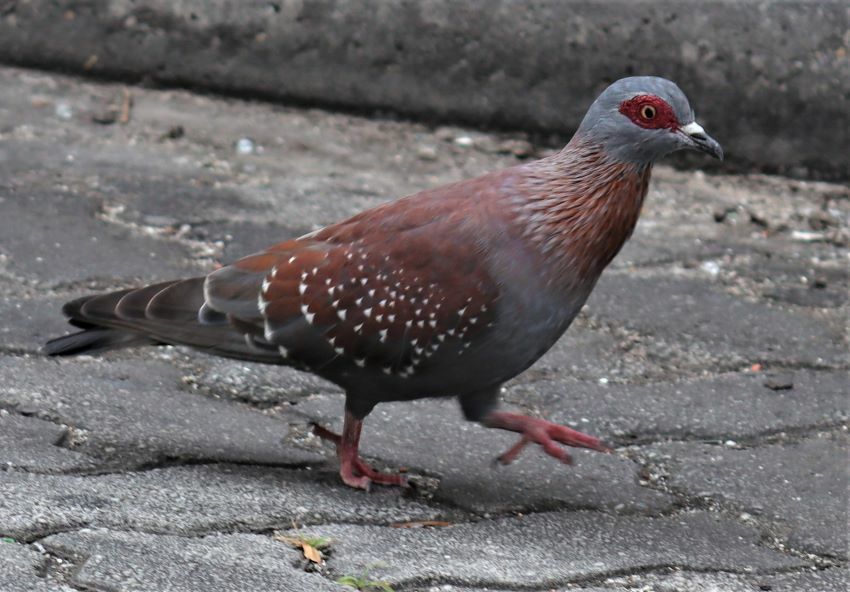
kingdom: Animalia
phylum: Chordata
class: Aves
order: Columbiformes
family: Columbidae
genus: Columba
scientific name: Columba guinea
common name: Speckled pigeon
